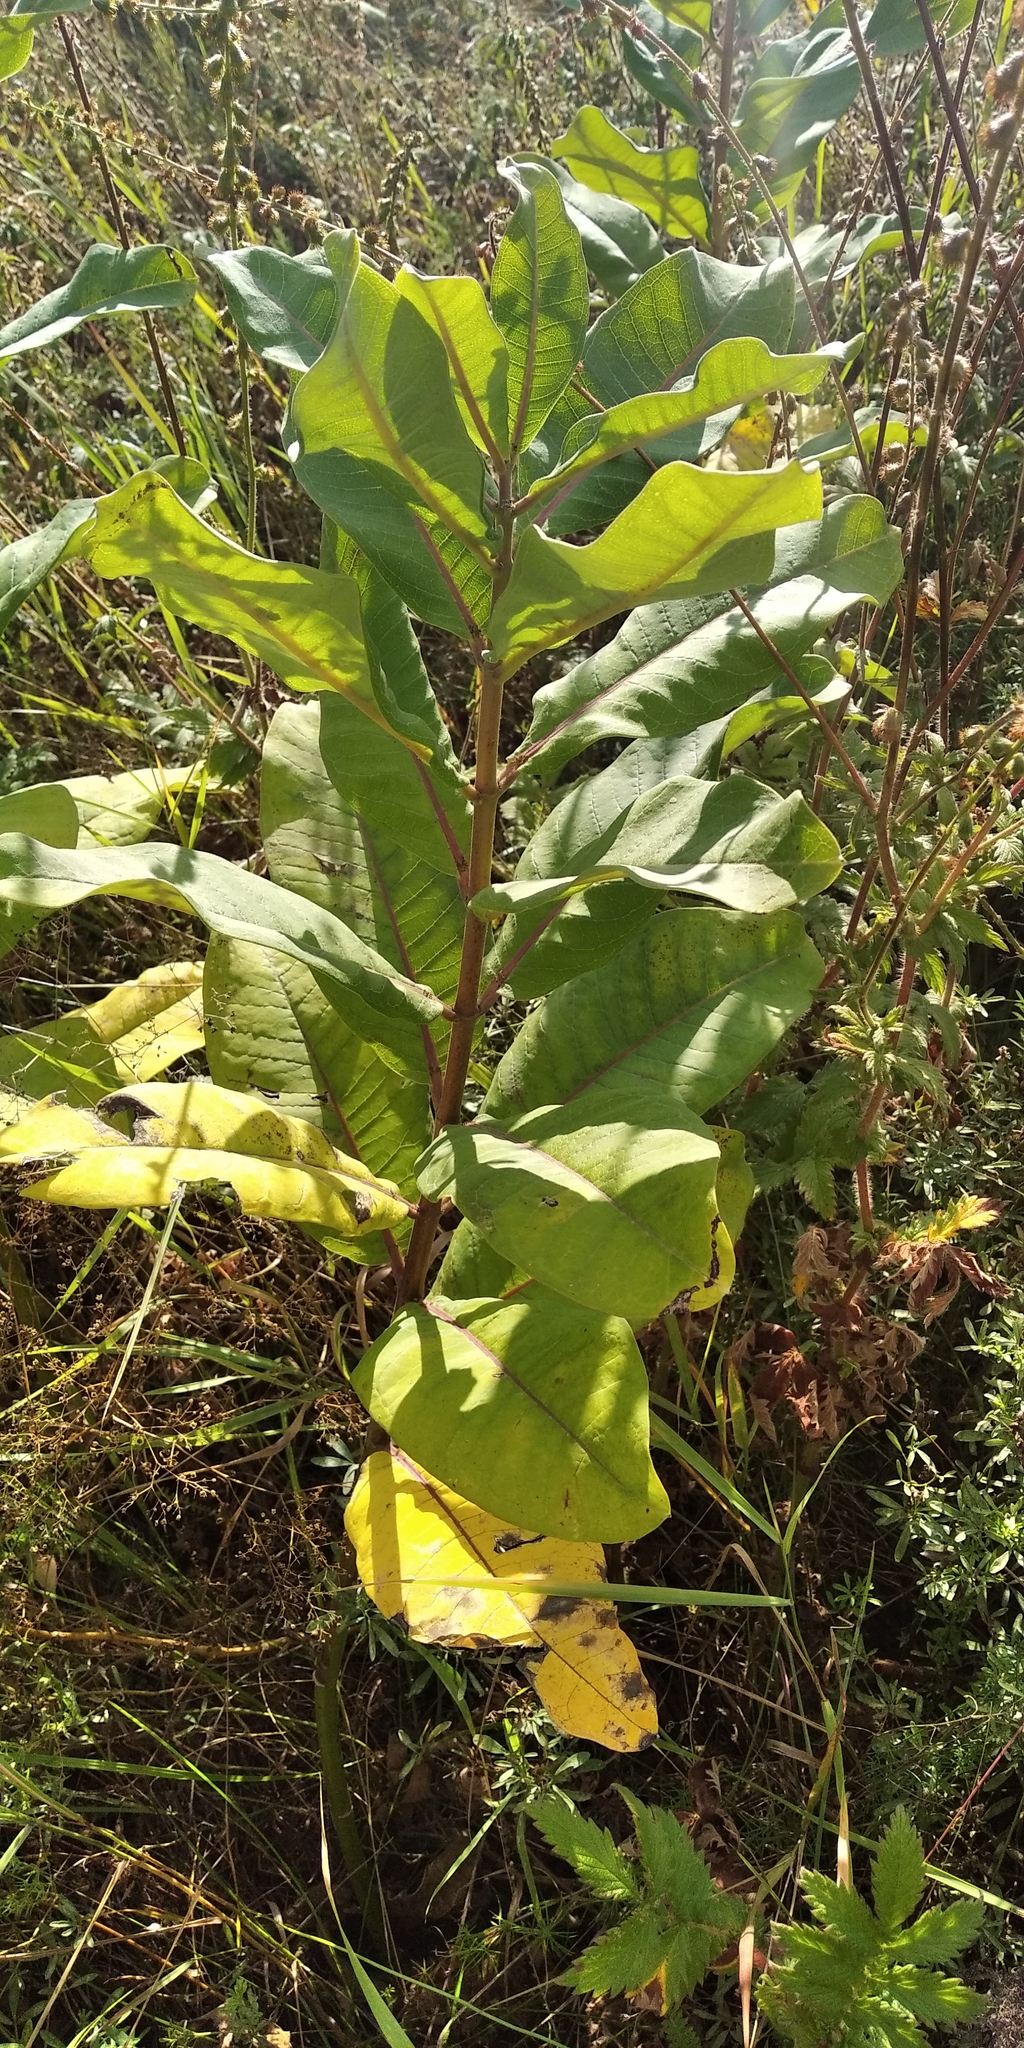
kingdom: Plantae
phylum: Tracheophyta
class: Magnoliopsida
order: Gentianales
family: Apocynaceae
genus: Asclepias
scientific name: Asclepias syriaca
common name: Common milkweed
